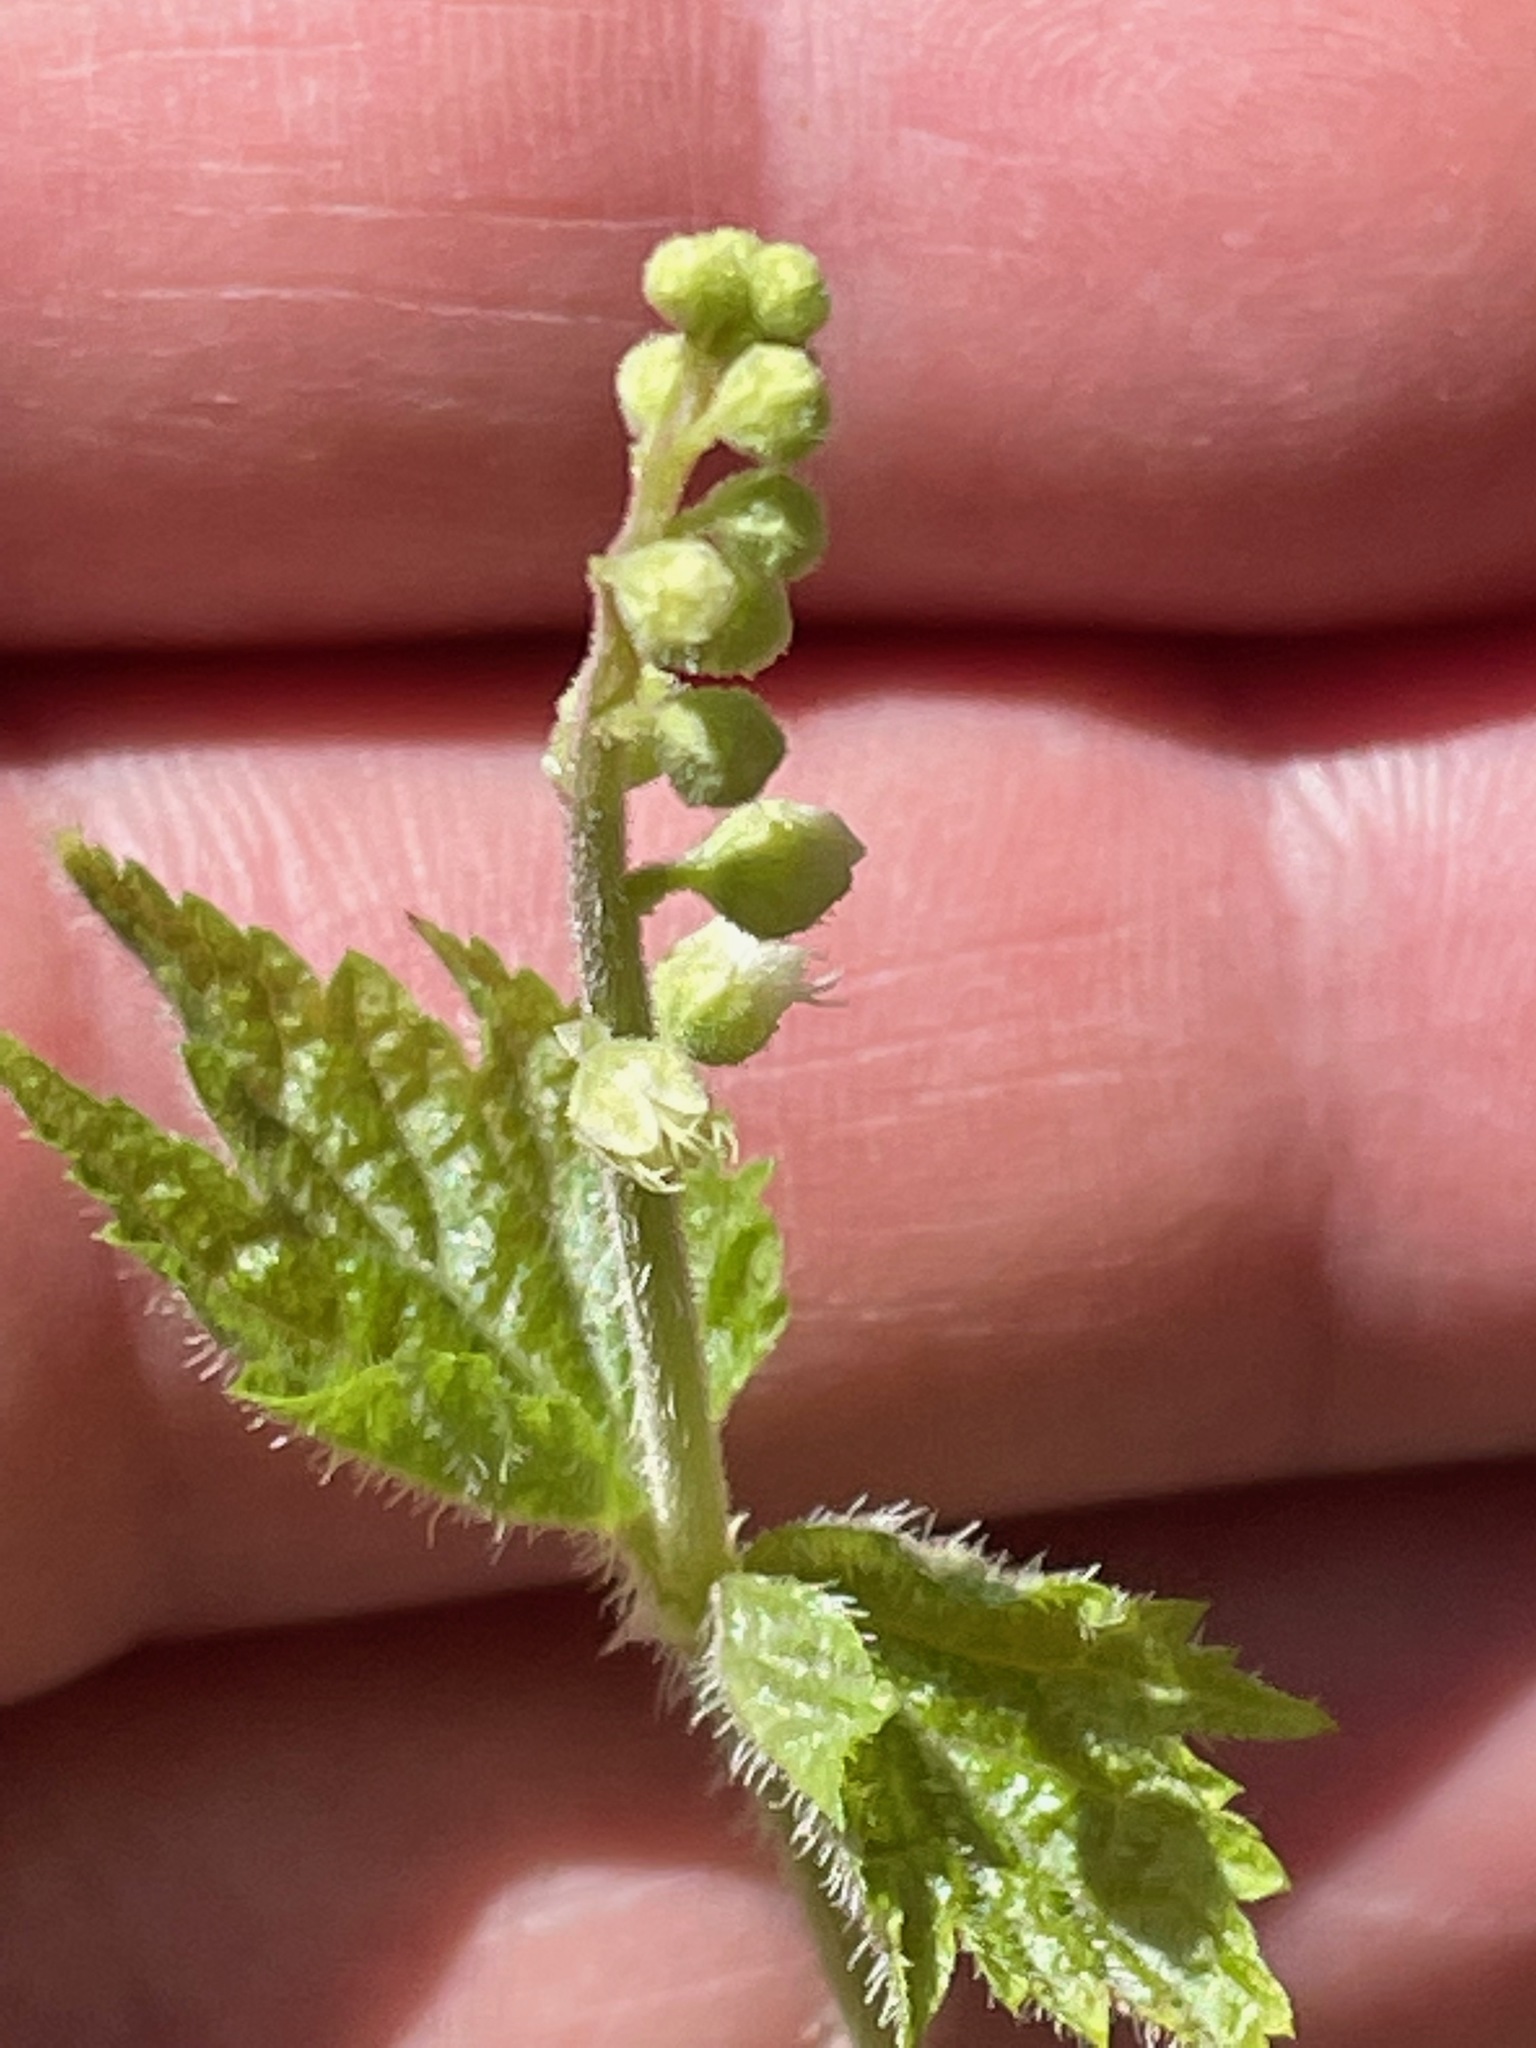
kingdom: Plantae
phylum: Tracheophyta
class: Magnoliopsida
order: Saxifragales
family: Saxifragaceae
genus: Mitella
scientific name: Mitella diphylla
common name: Coolwort
